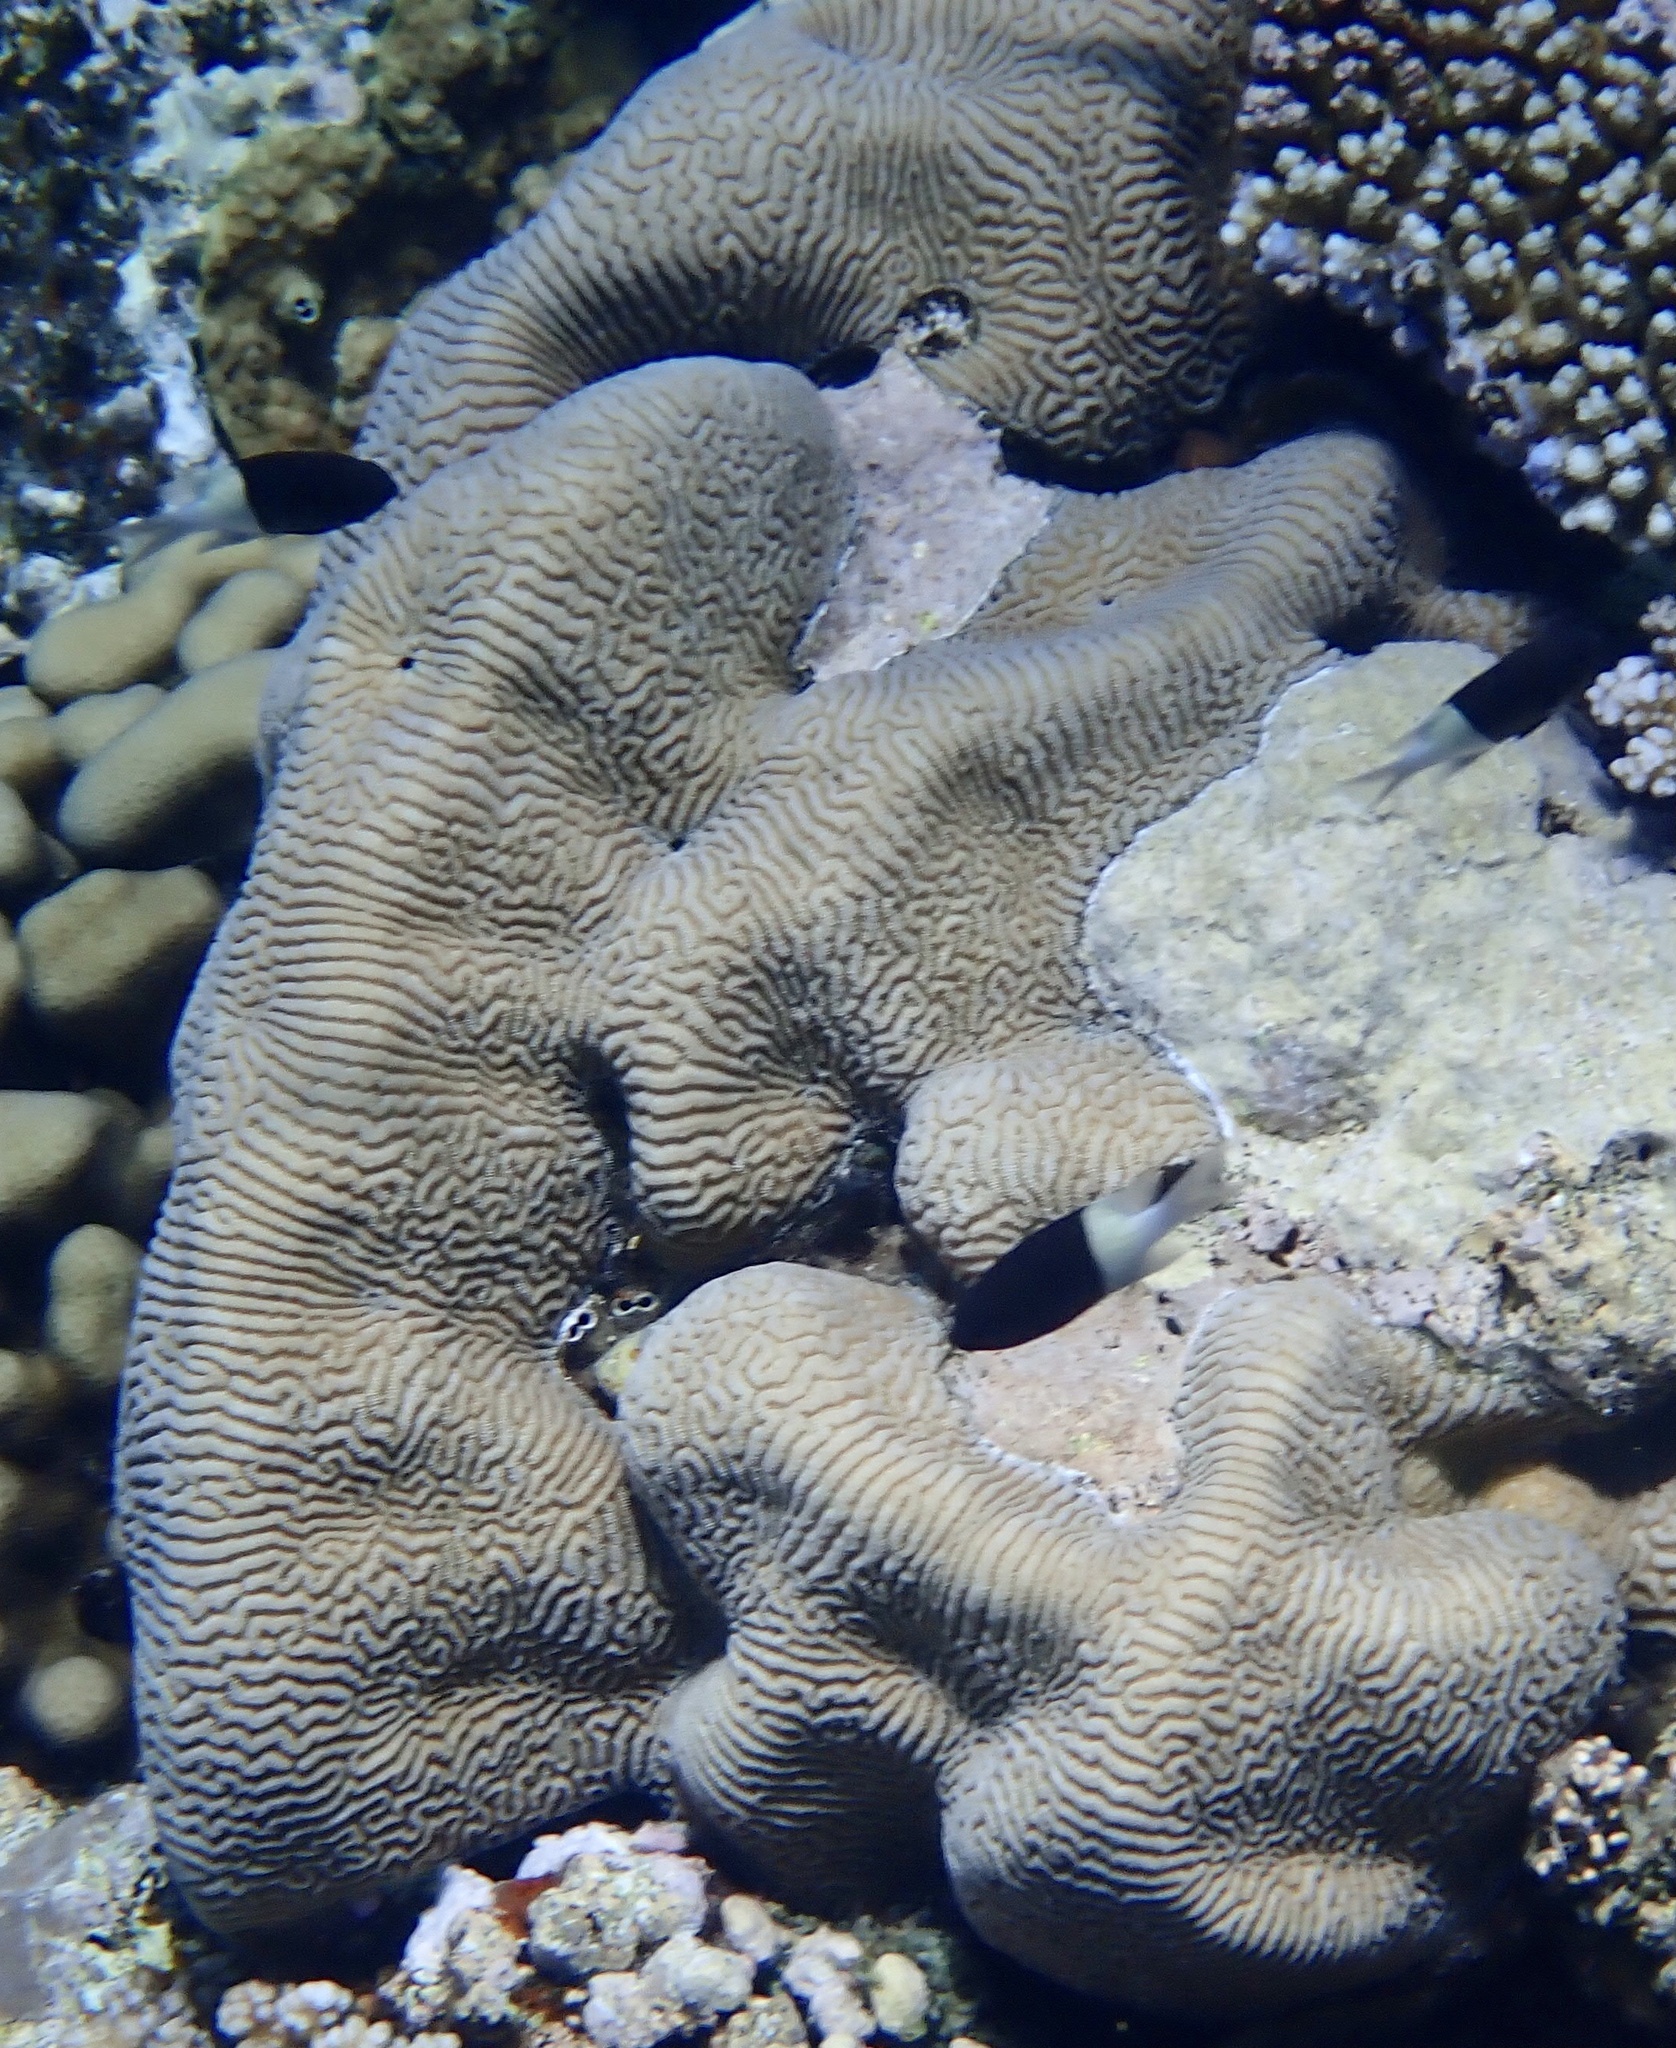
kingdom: Animalia
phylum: Cnidaria
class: Anthozoa
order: Scleractinia
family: Merulinidae
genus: Leptoria
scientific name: Leptoria phrygia
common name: Least valley coral
